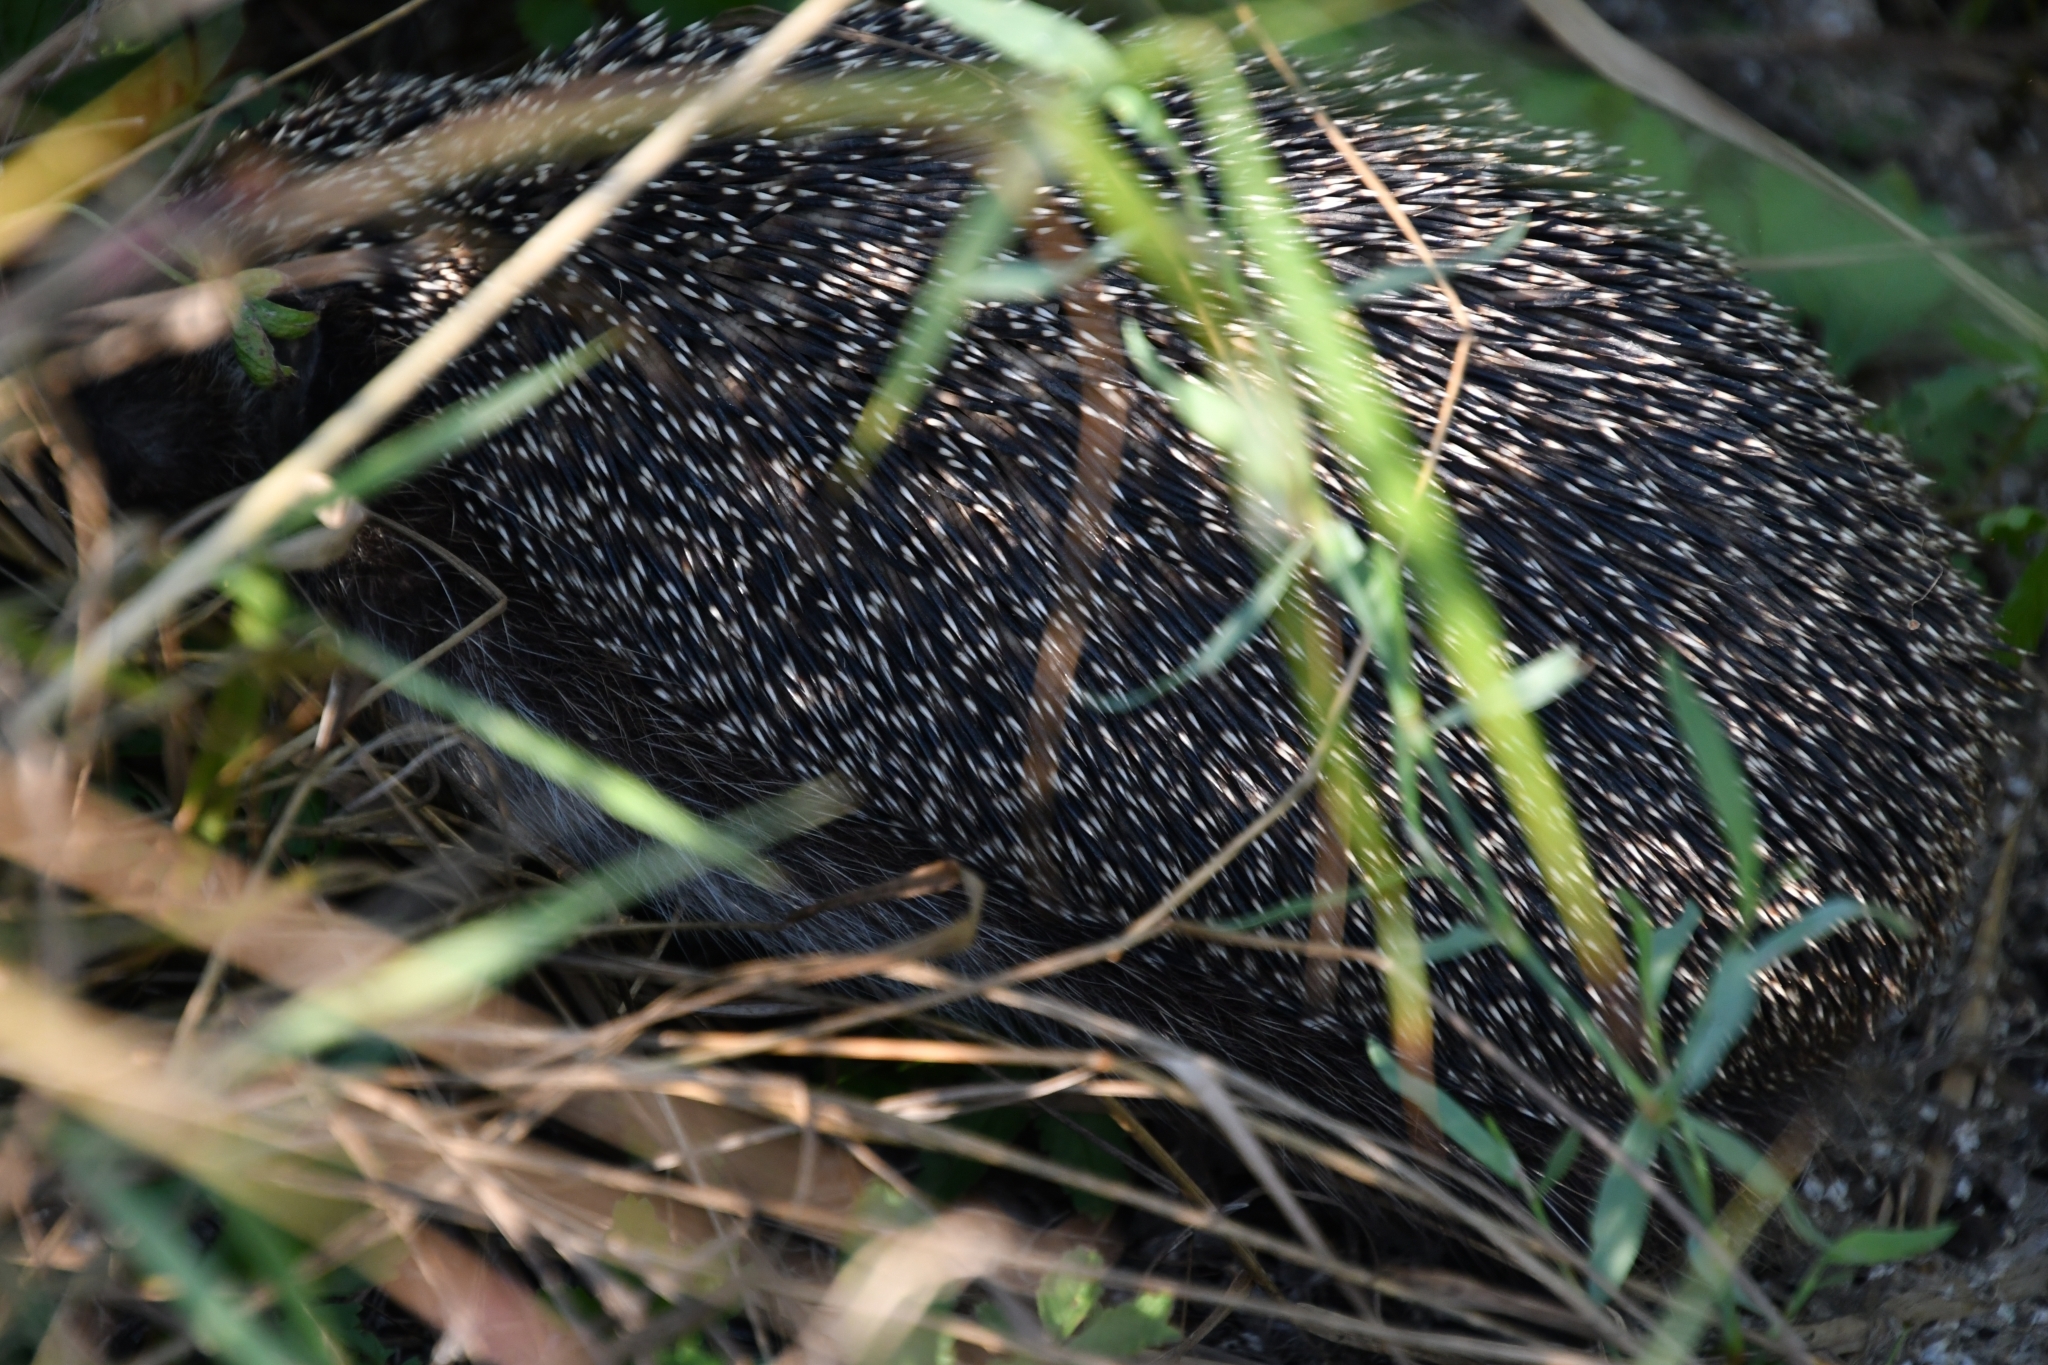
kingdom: Animalia
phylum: Chordata
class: Mammalia
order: Erinaceomorpha
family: Erinaceidae
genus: Erinaceus
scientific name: Erinaceus roumanicus
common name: Northern white-breasted hedgehog
